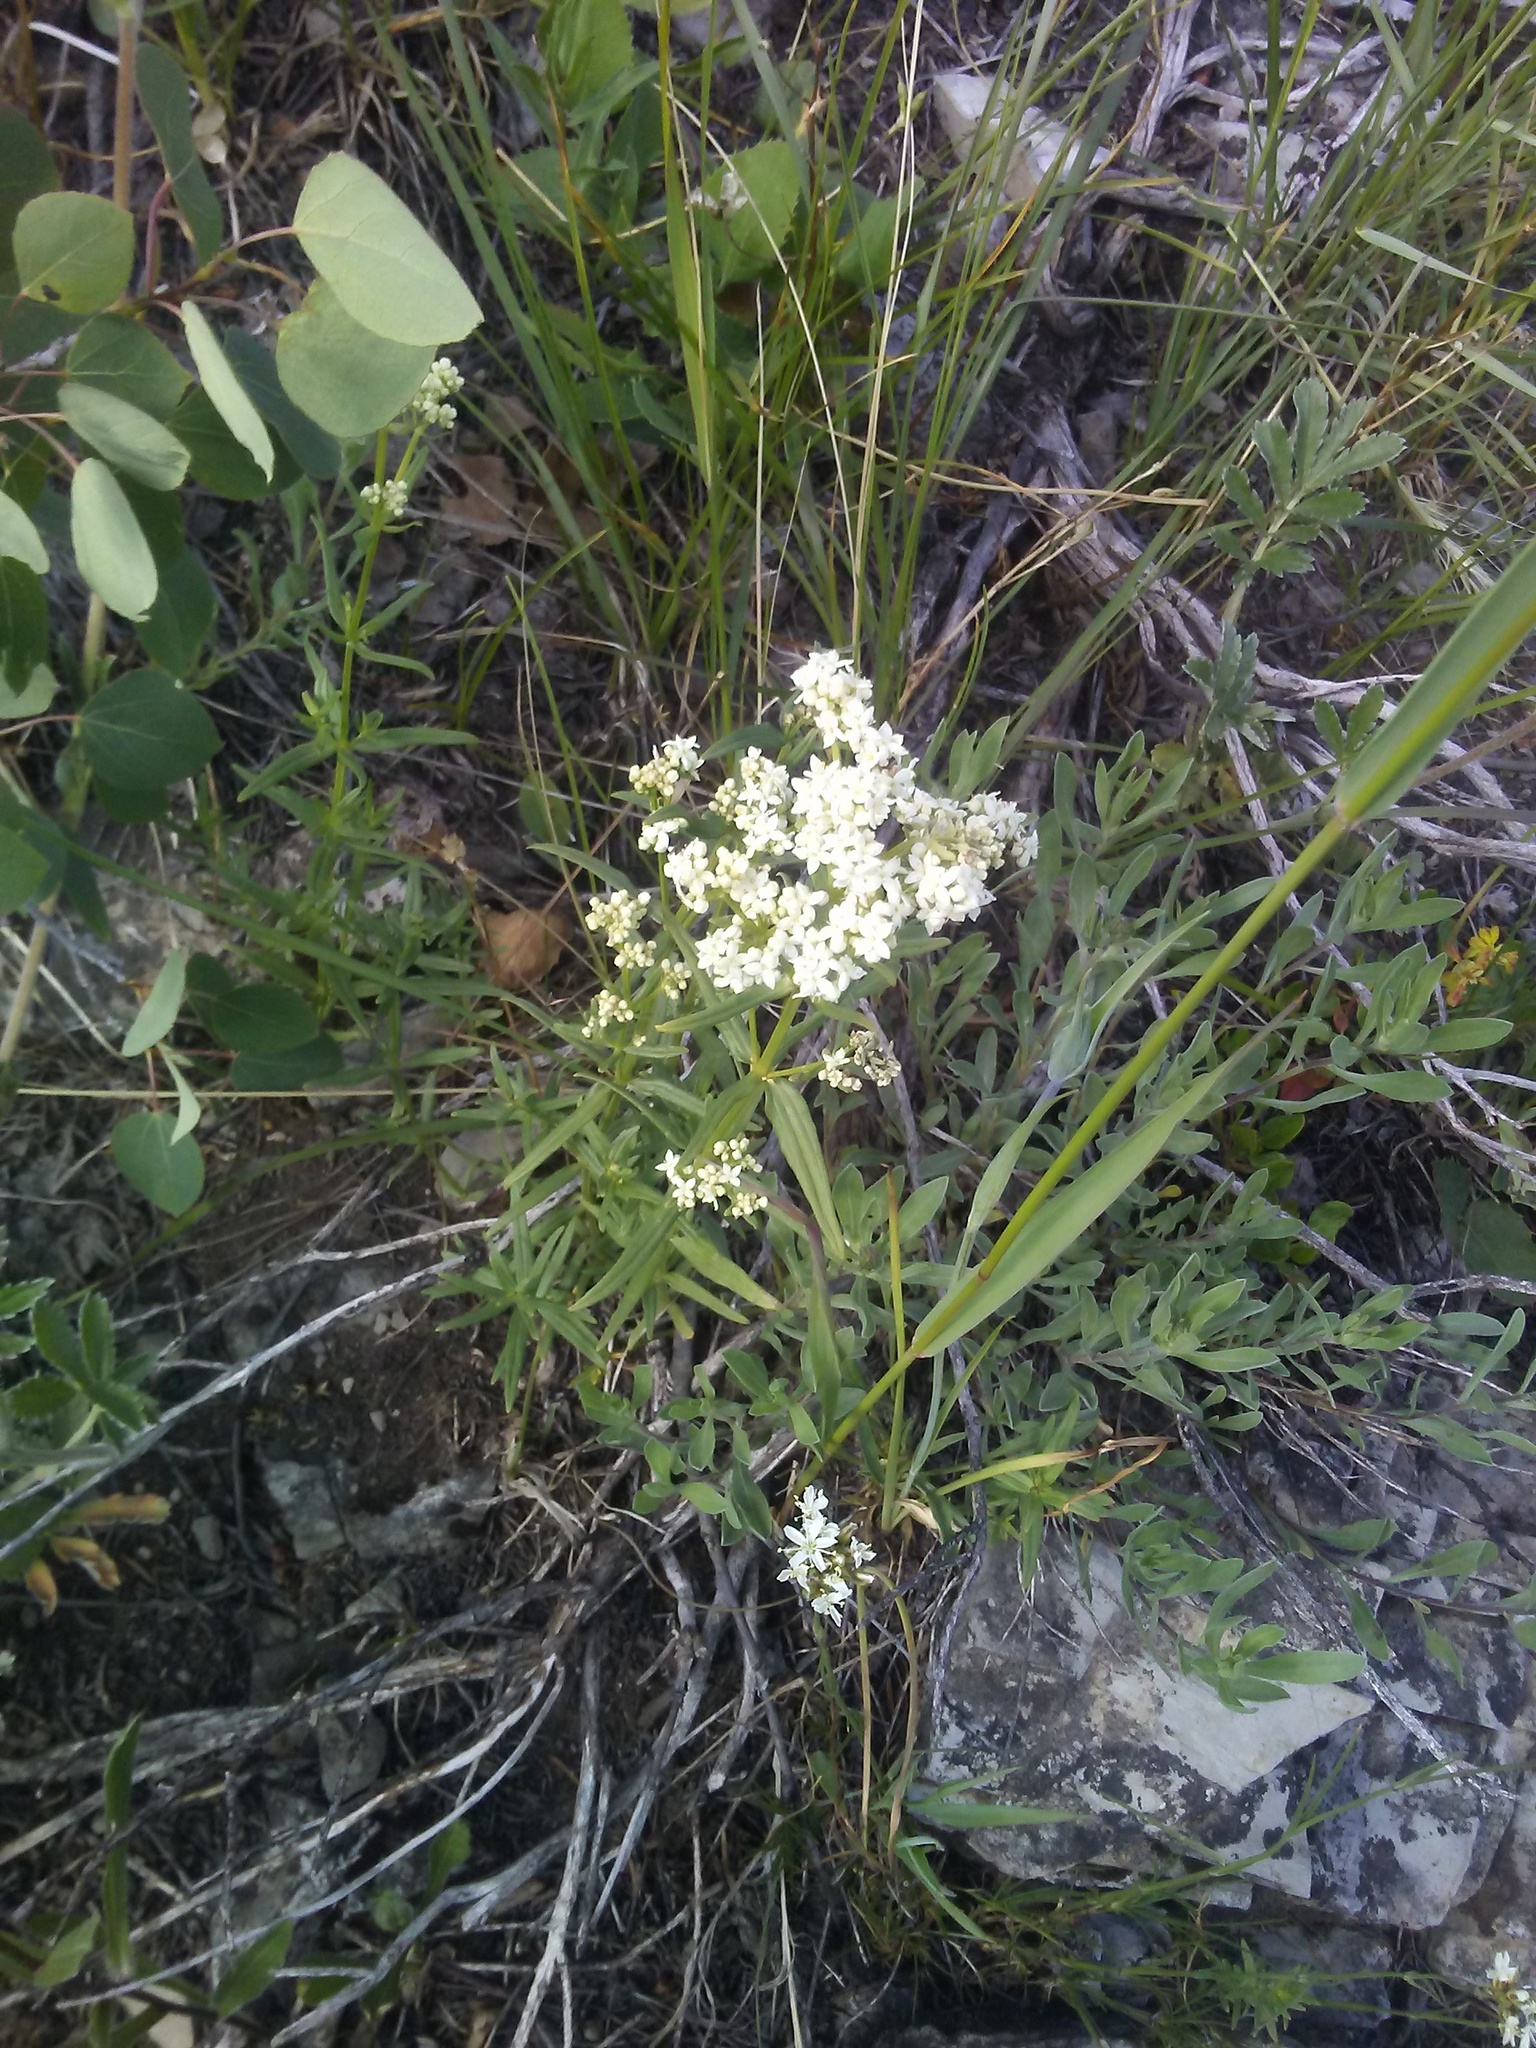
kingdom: Plantae
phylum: Tracheophyta
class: Magnoliopsida
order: Gentianales
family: Rubiaceae
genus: Galium
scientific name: Galium boreale
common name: Northern bedstraw
